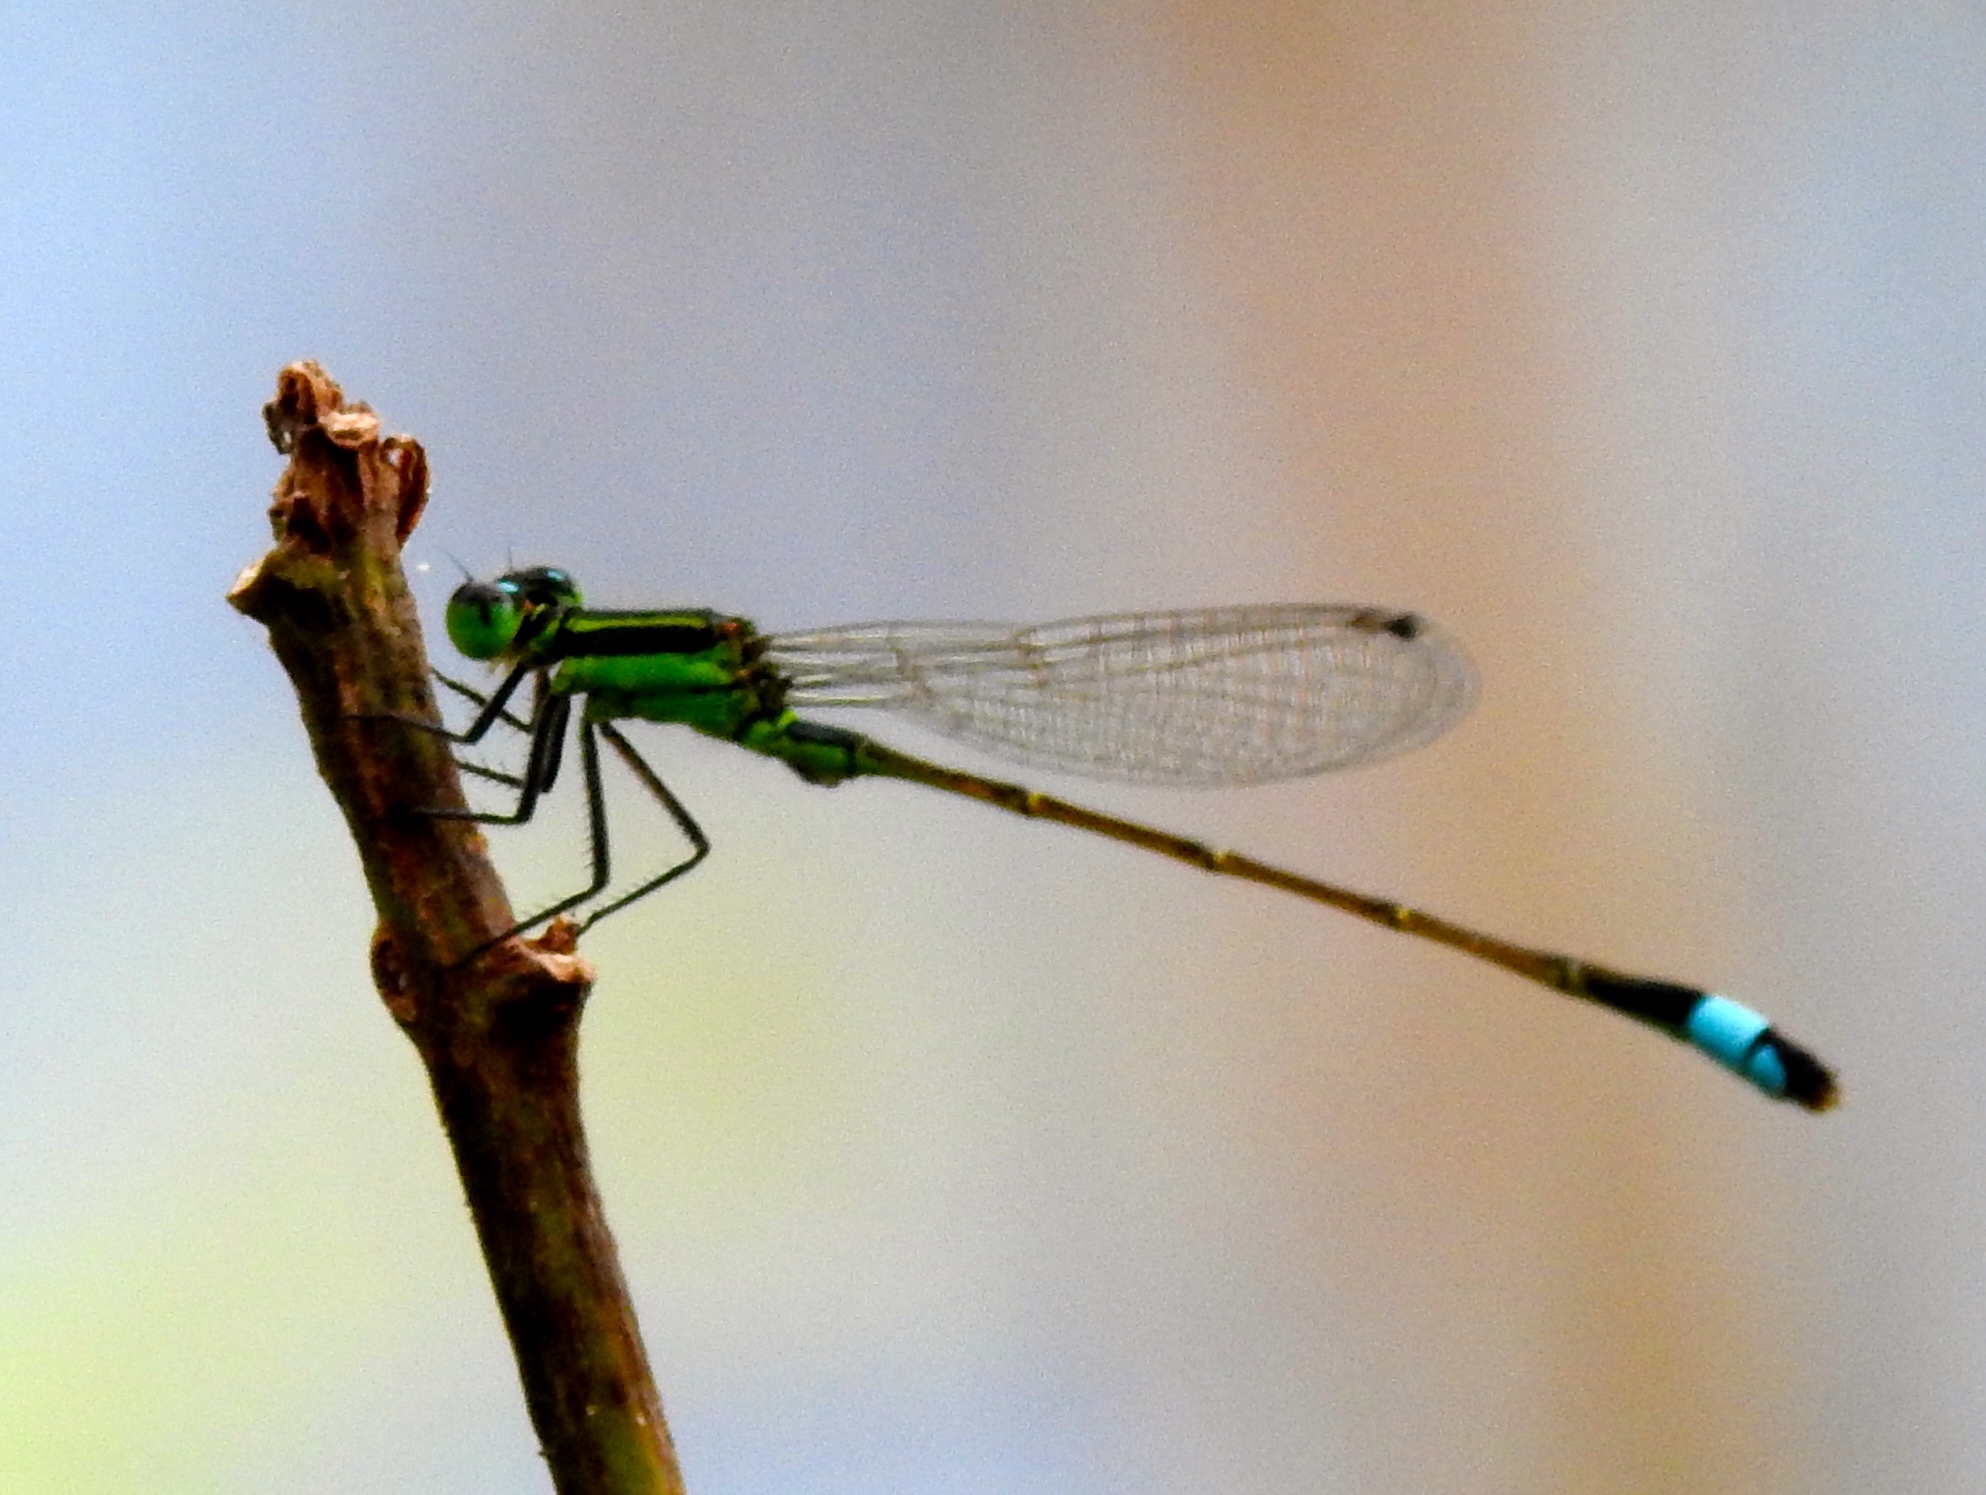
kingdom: Animalia
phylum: Arthropoda
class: Insecta
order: Odonata
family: Coenagrionidae
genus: Ischnura
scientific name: Ischnura ramburii
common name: Rambur's forktail
